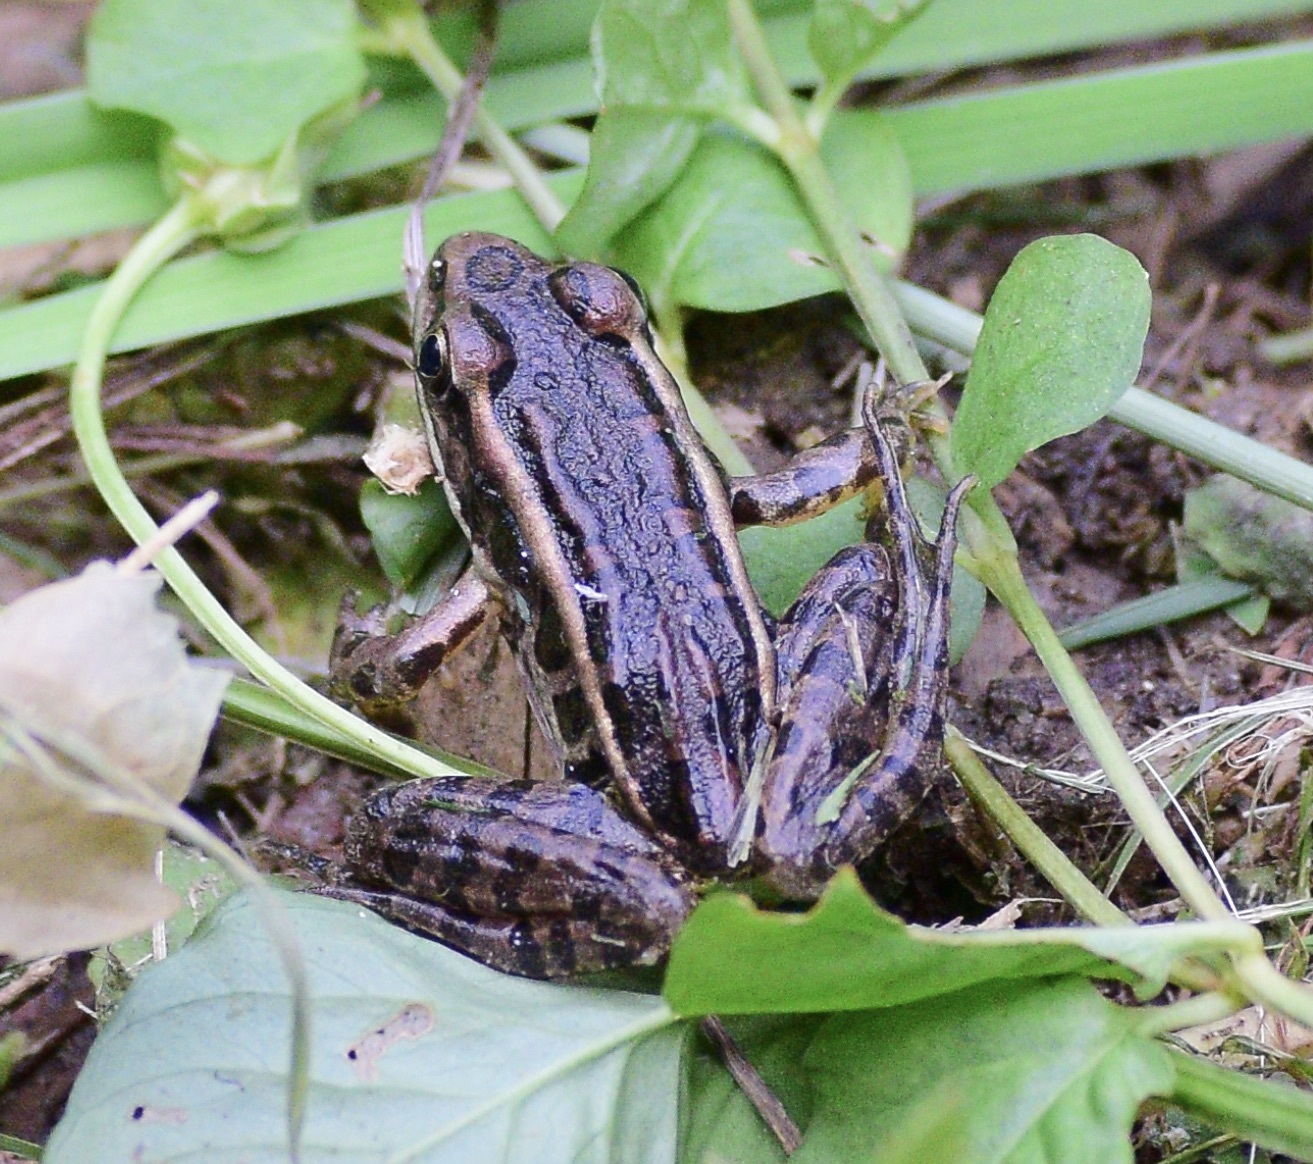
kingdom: Animalia
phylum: Chordata
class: Amphibia
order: Anura
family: Ranidae
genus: Lithobates
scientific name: Lithobates palustris
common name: Pickerel frog
